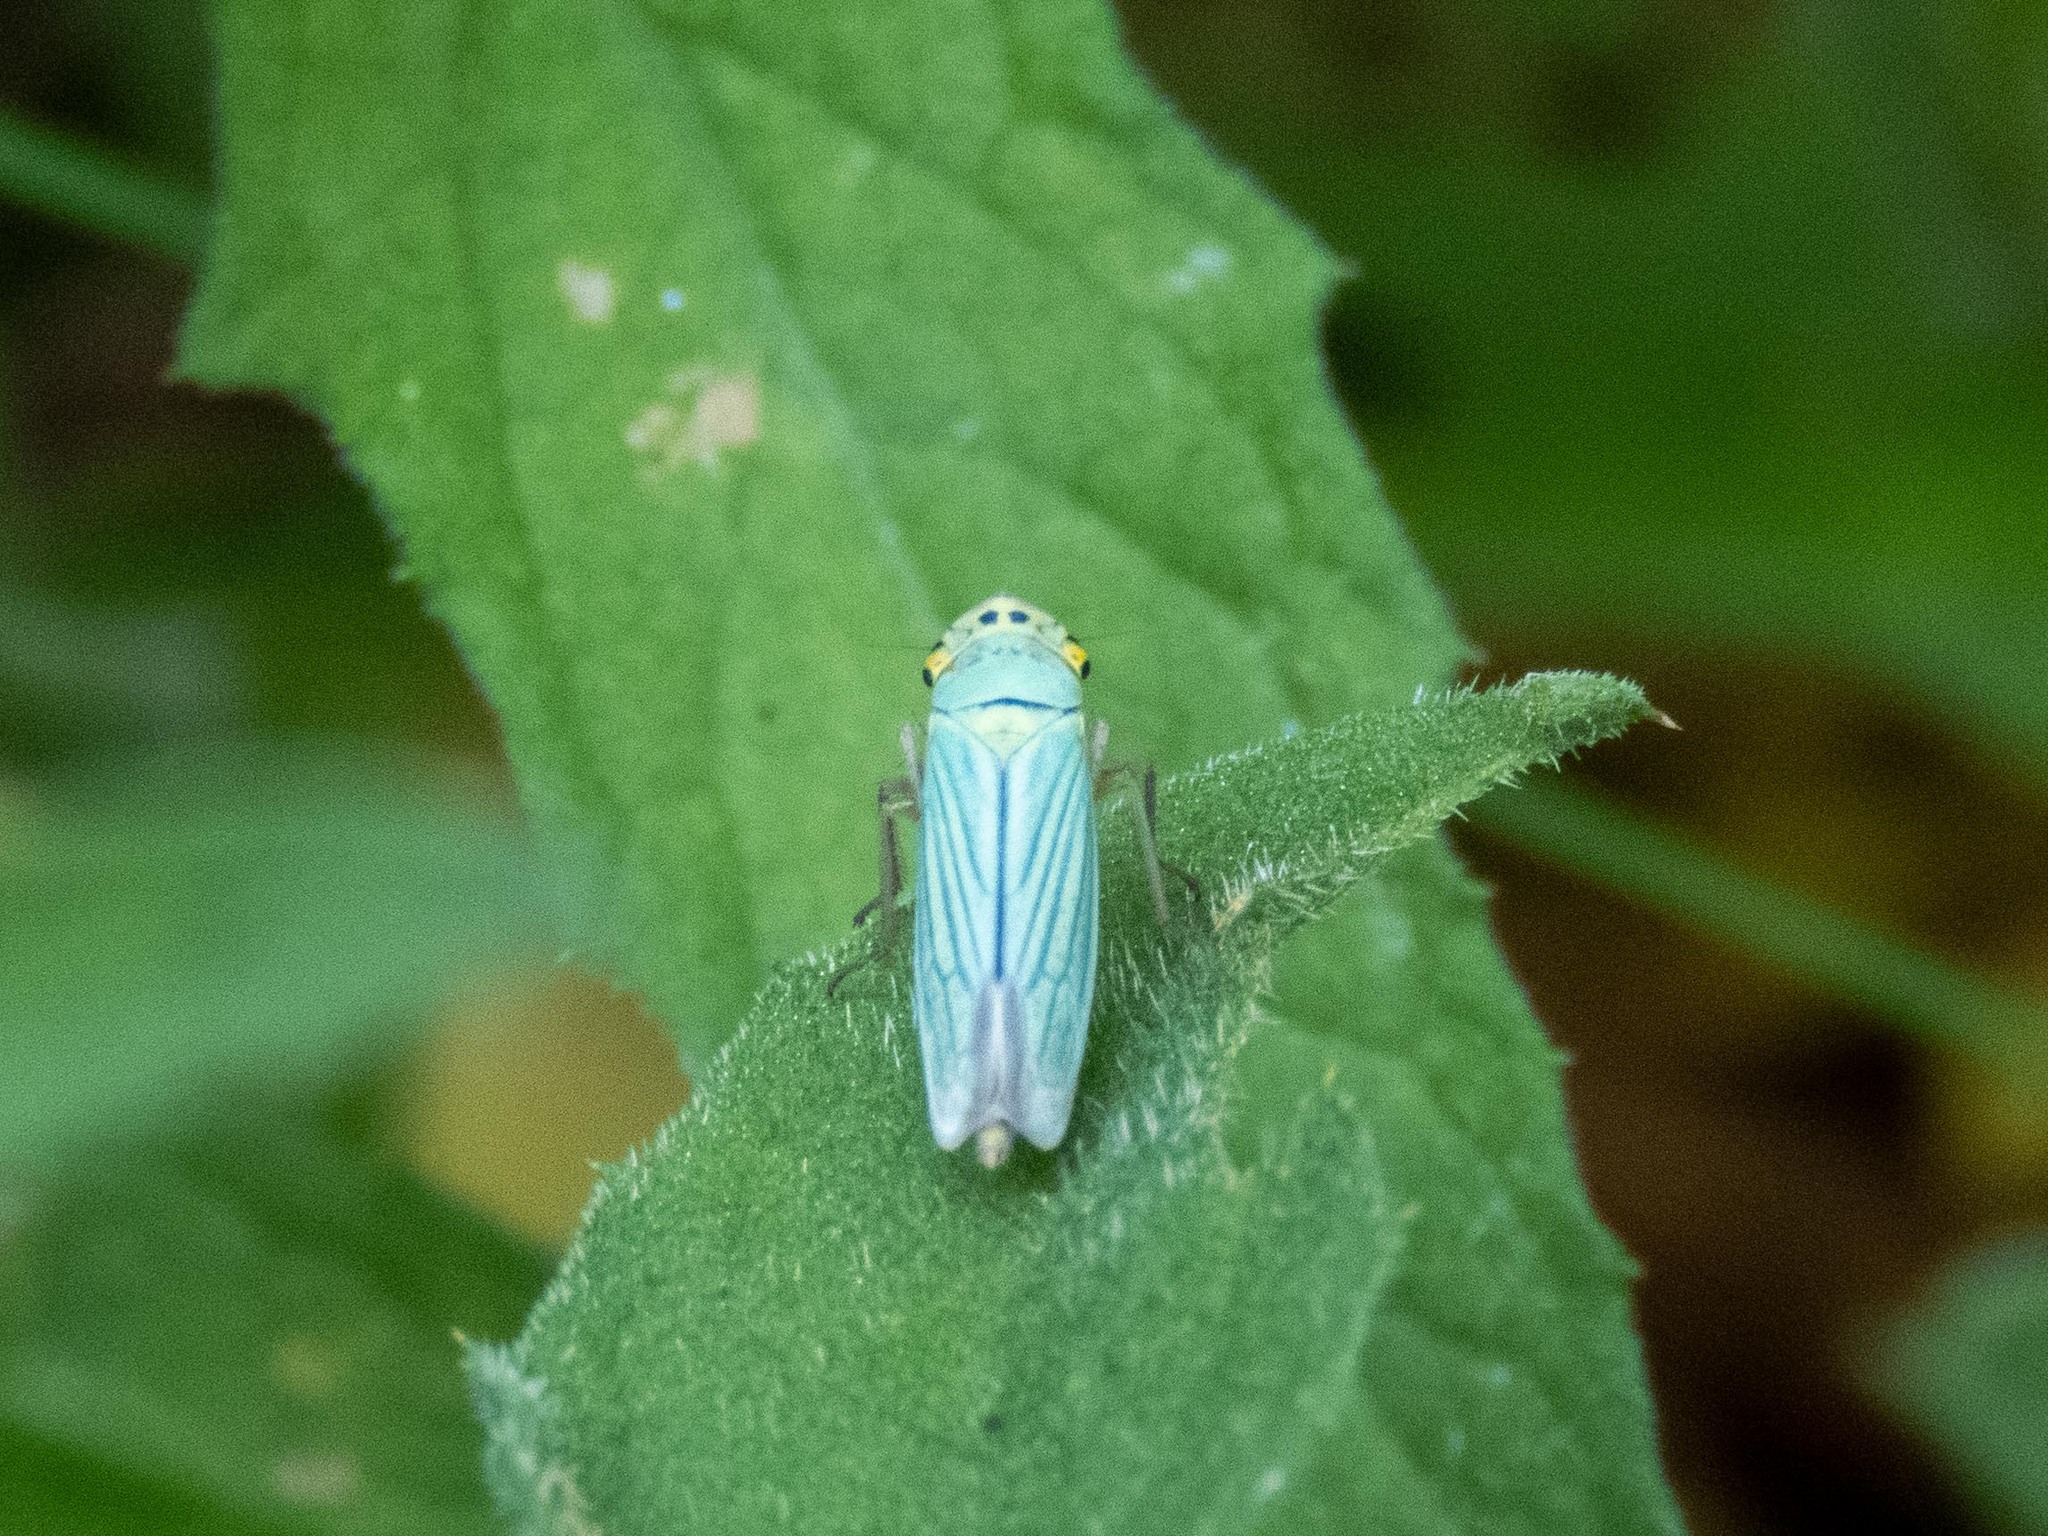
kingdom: Animalia
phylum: Arthropoda
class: Insecta
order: Hemiptera
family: Cicadellidae
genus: Cicadella
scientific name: Cicadella viridis
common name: Leafhopper
